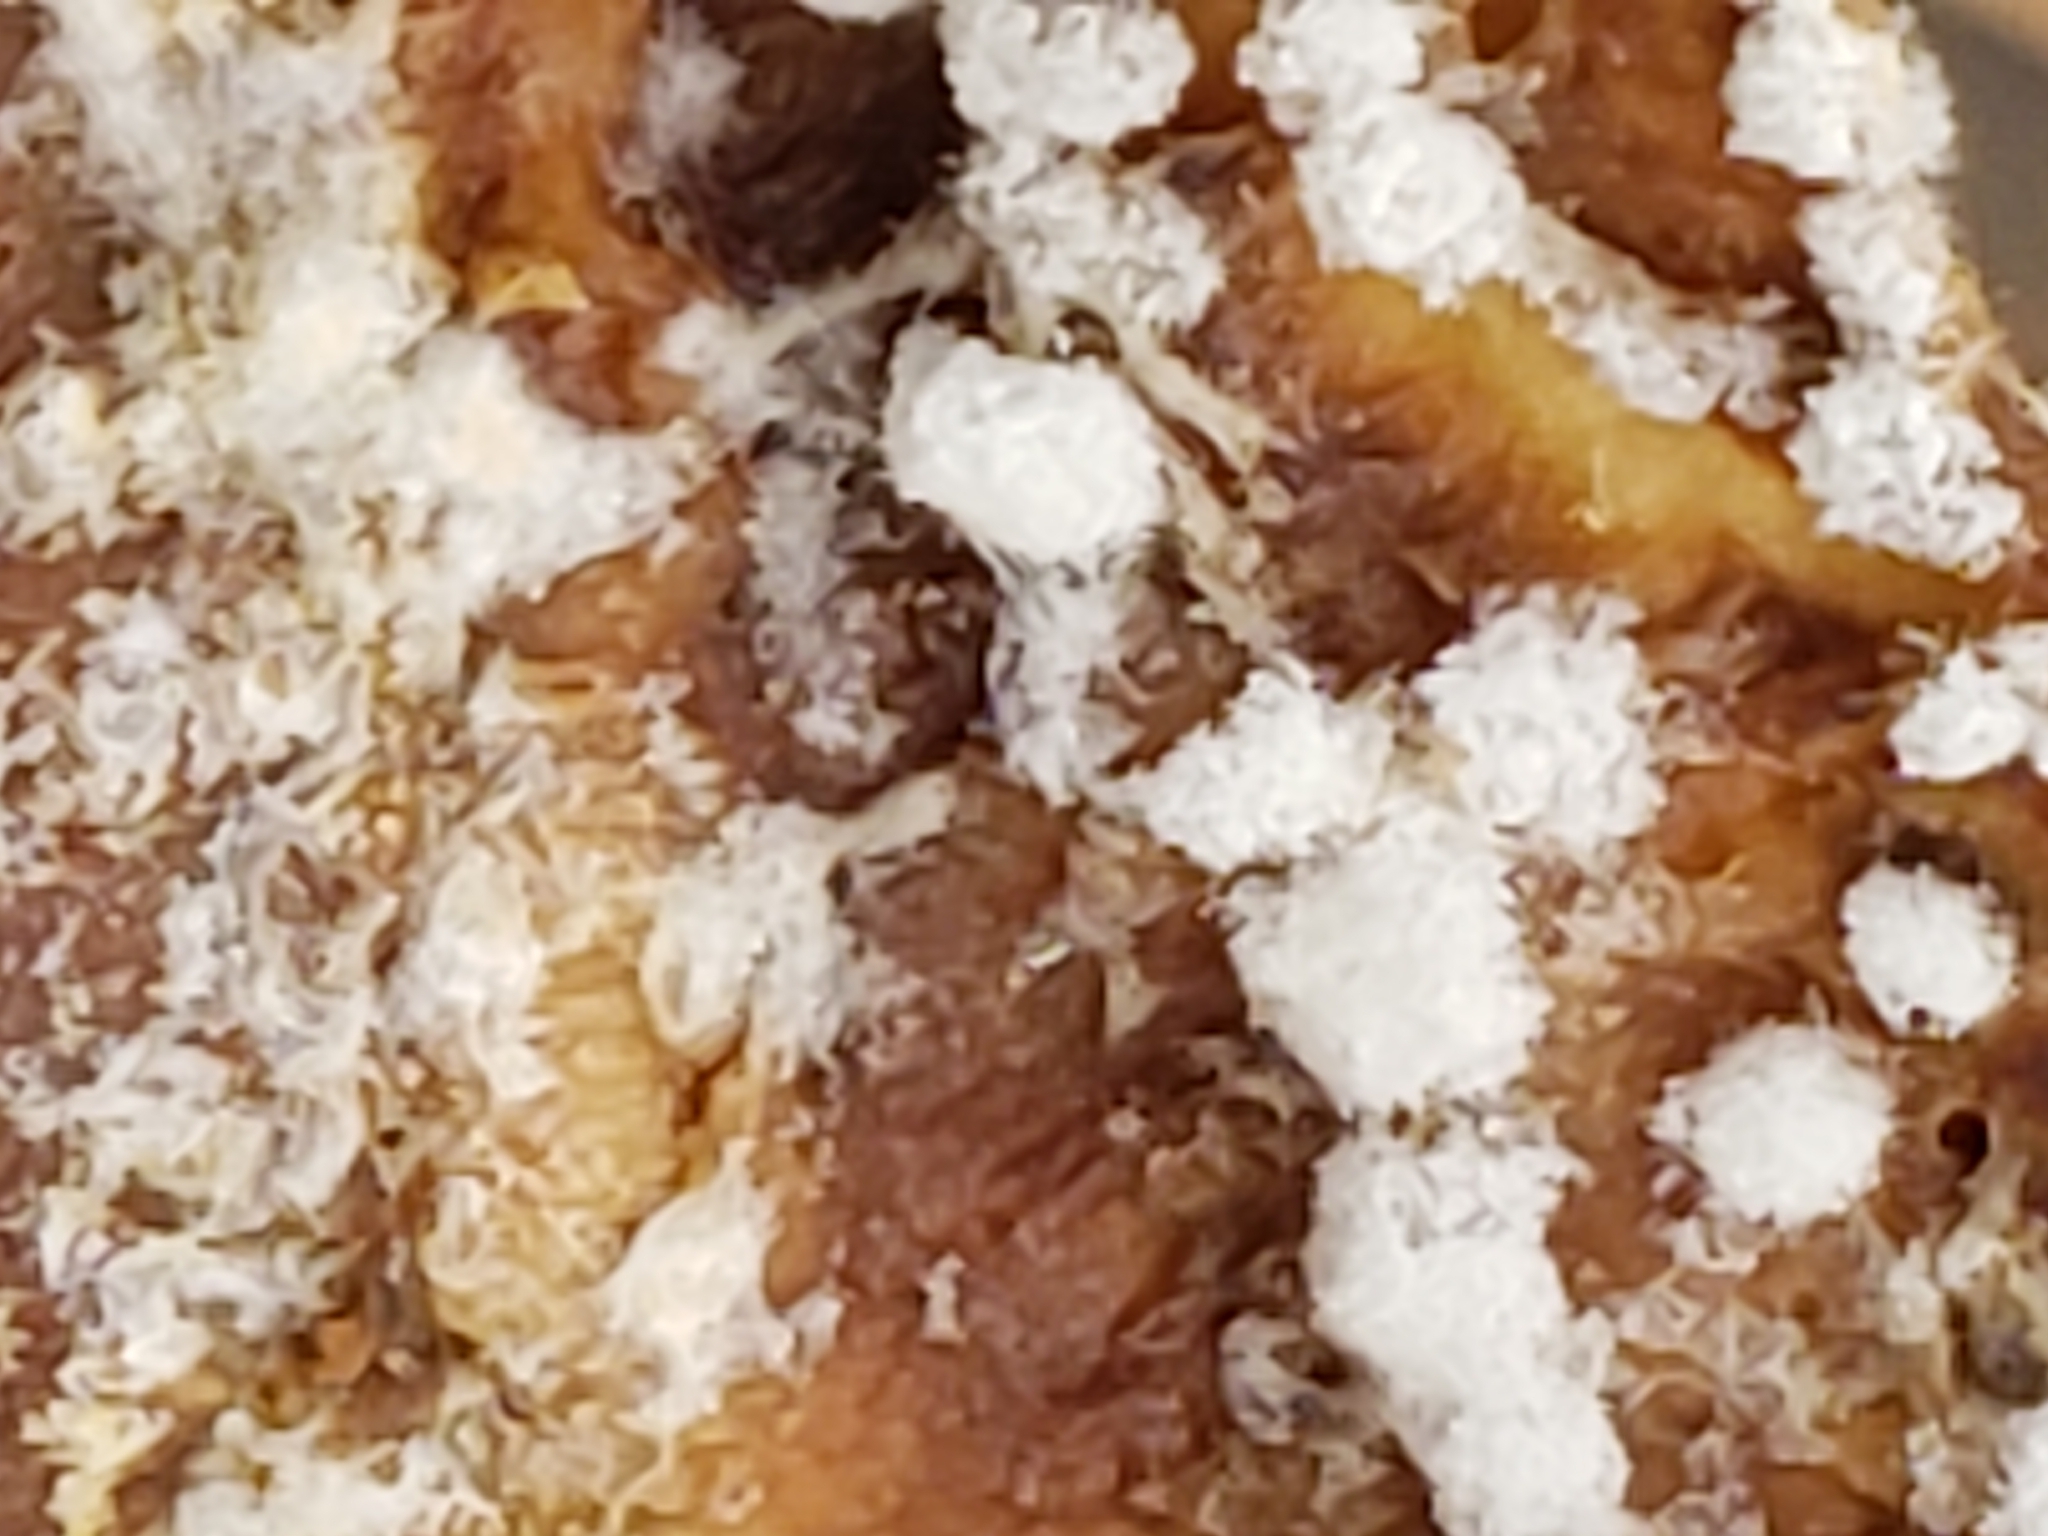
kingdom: Fungi
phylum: Ascomycota
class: Sordariomycetes
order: Hypocreales
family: Hypocreaceae
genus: Hypomyces
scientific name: Hypomyces aurantius
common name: Orange polypore mould
